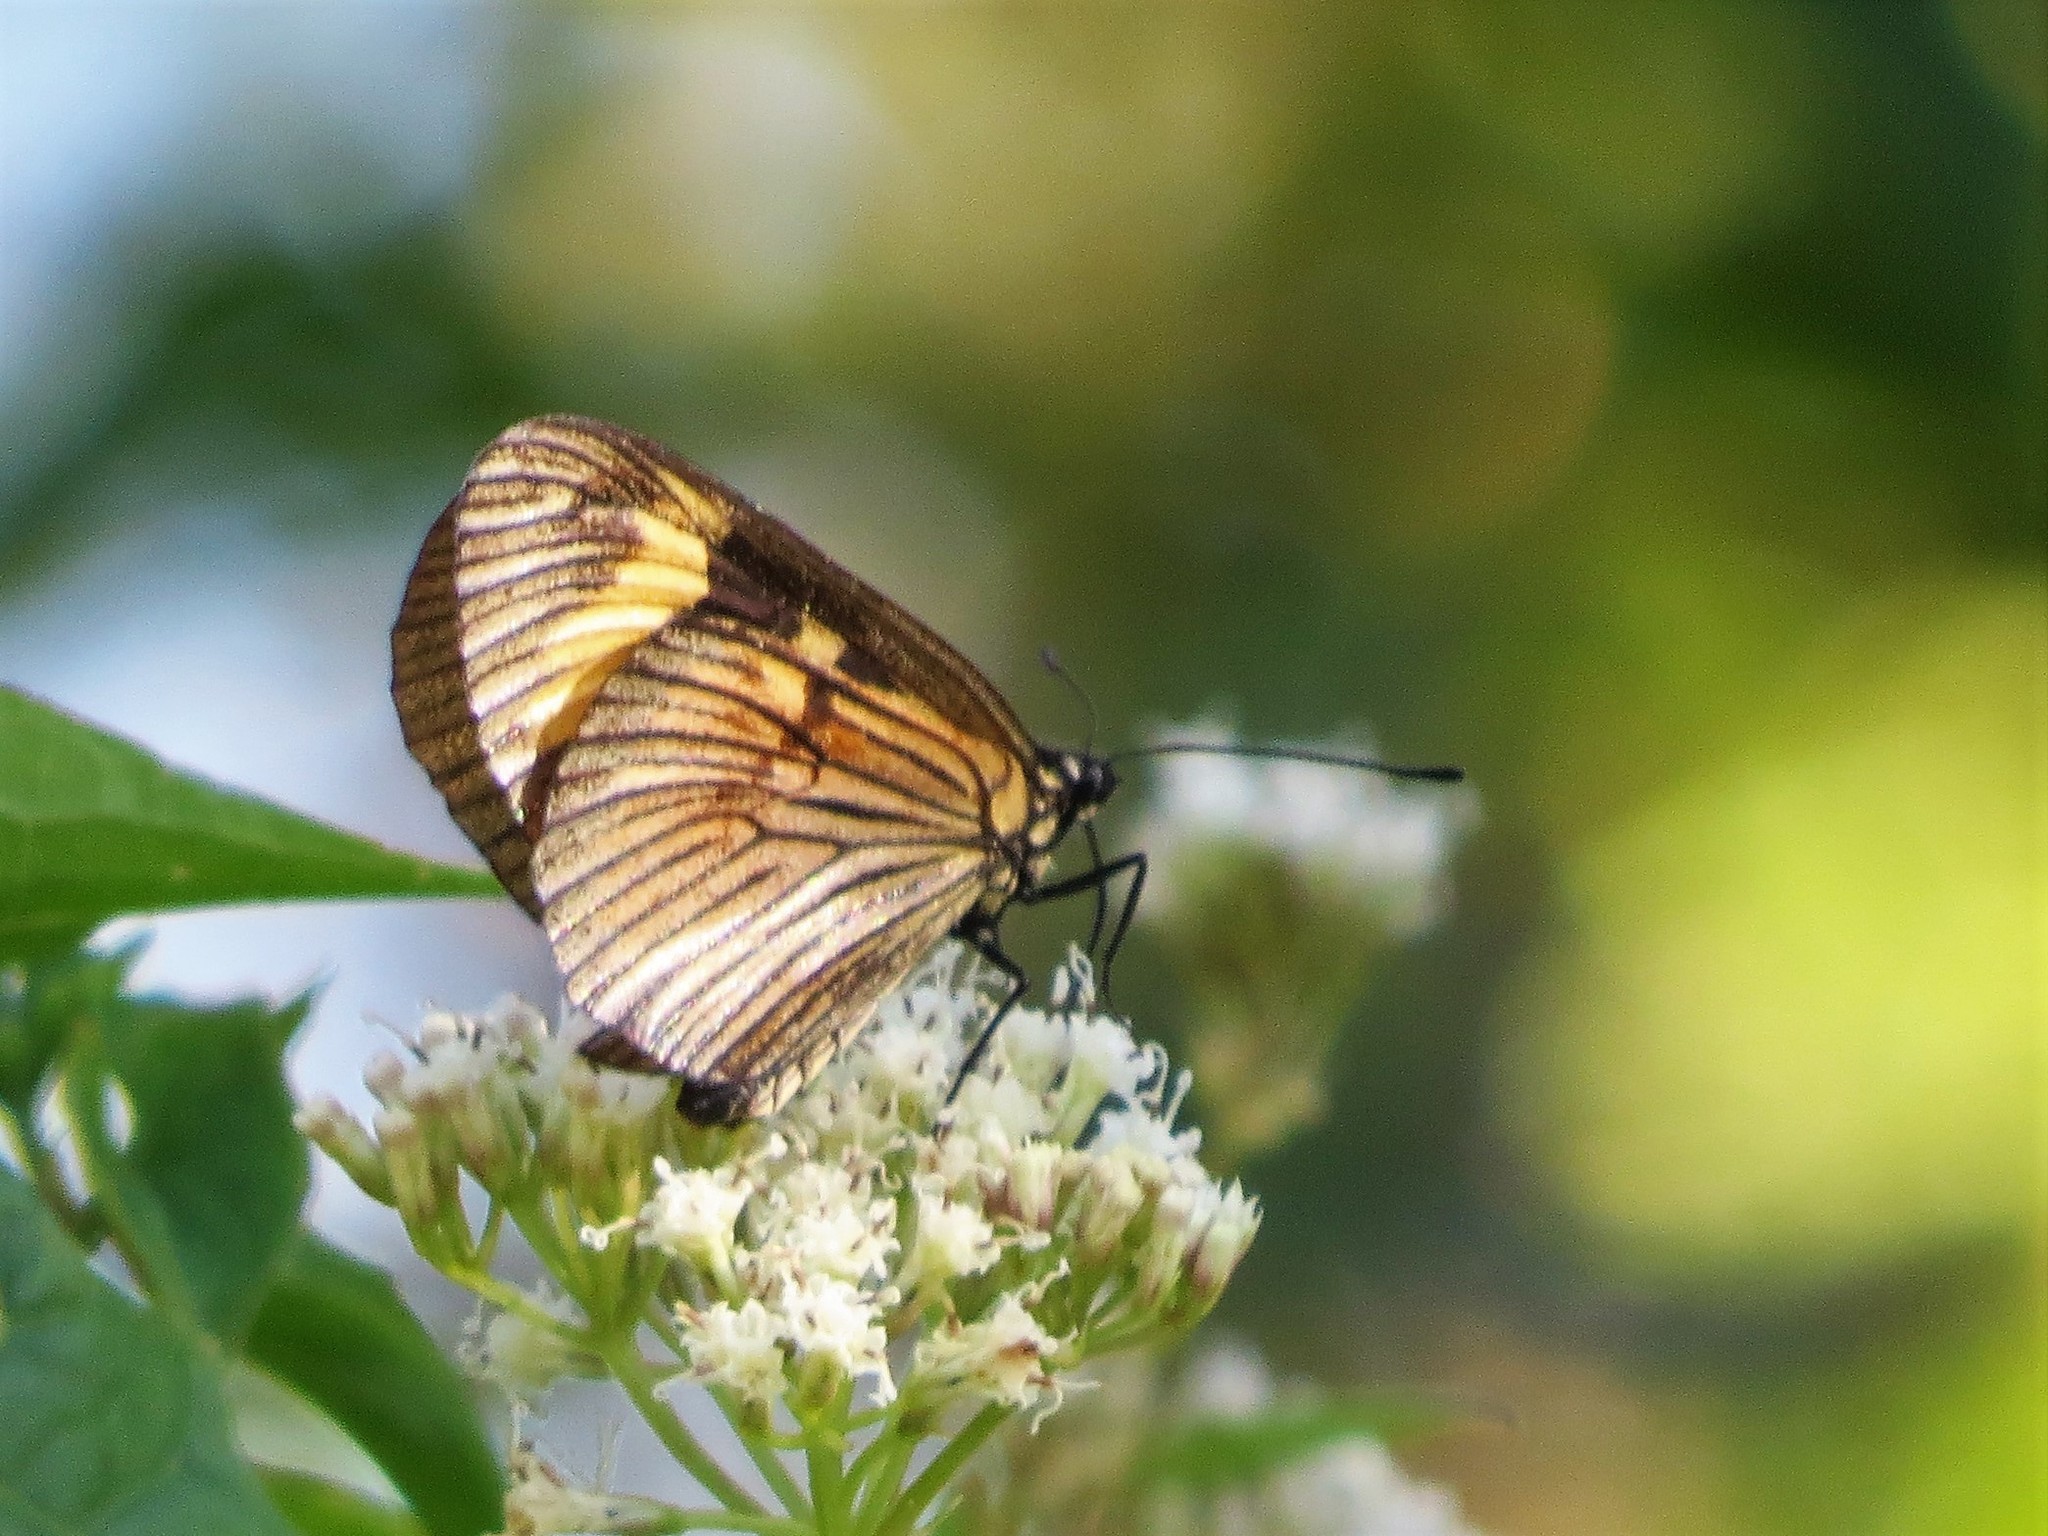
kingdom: Animalia
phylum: Arthropoda
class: Insecta
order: Lepidoptera
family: Nymphalidae
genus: Actinote
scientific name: Actinote pellenea
